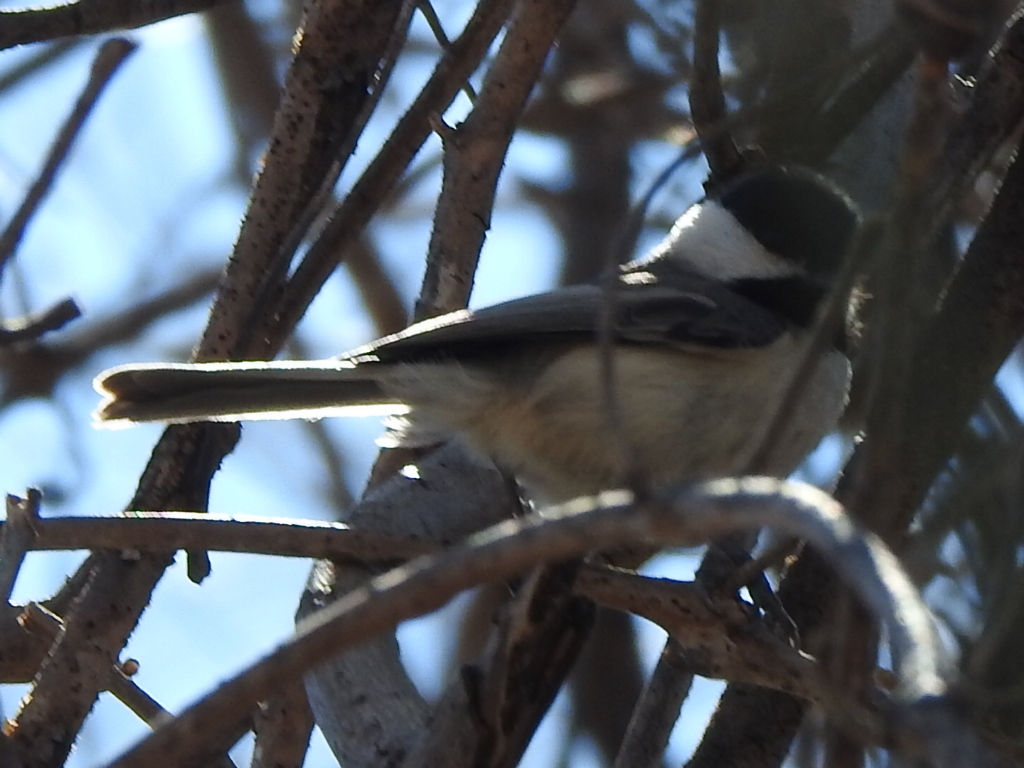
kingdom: Animalia
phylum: Chordata
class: Aves
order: Passeriformes
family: Paridae
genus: Poecile
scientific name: Poecile carolinensis
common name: Carolina chickadee
